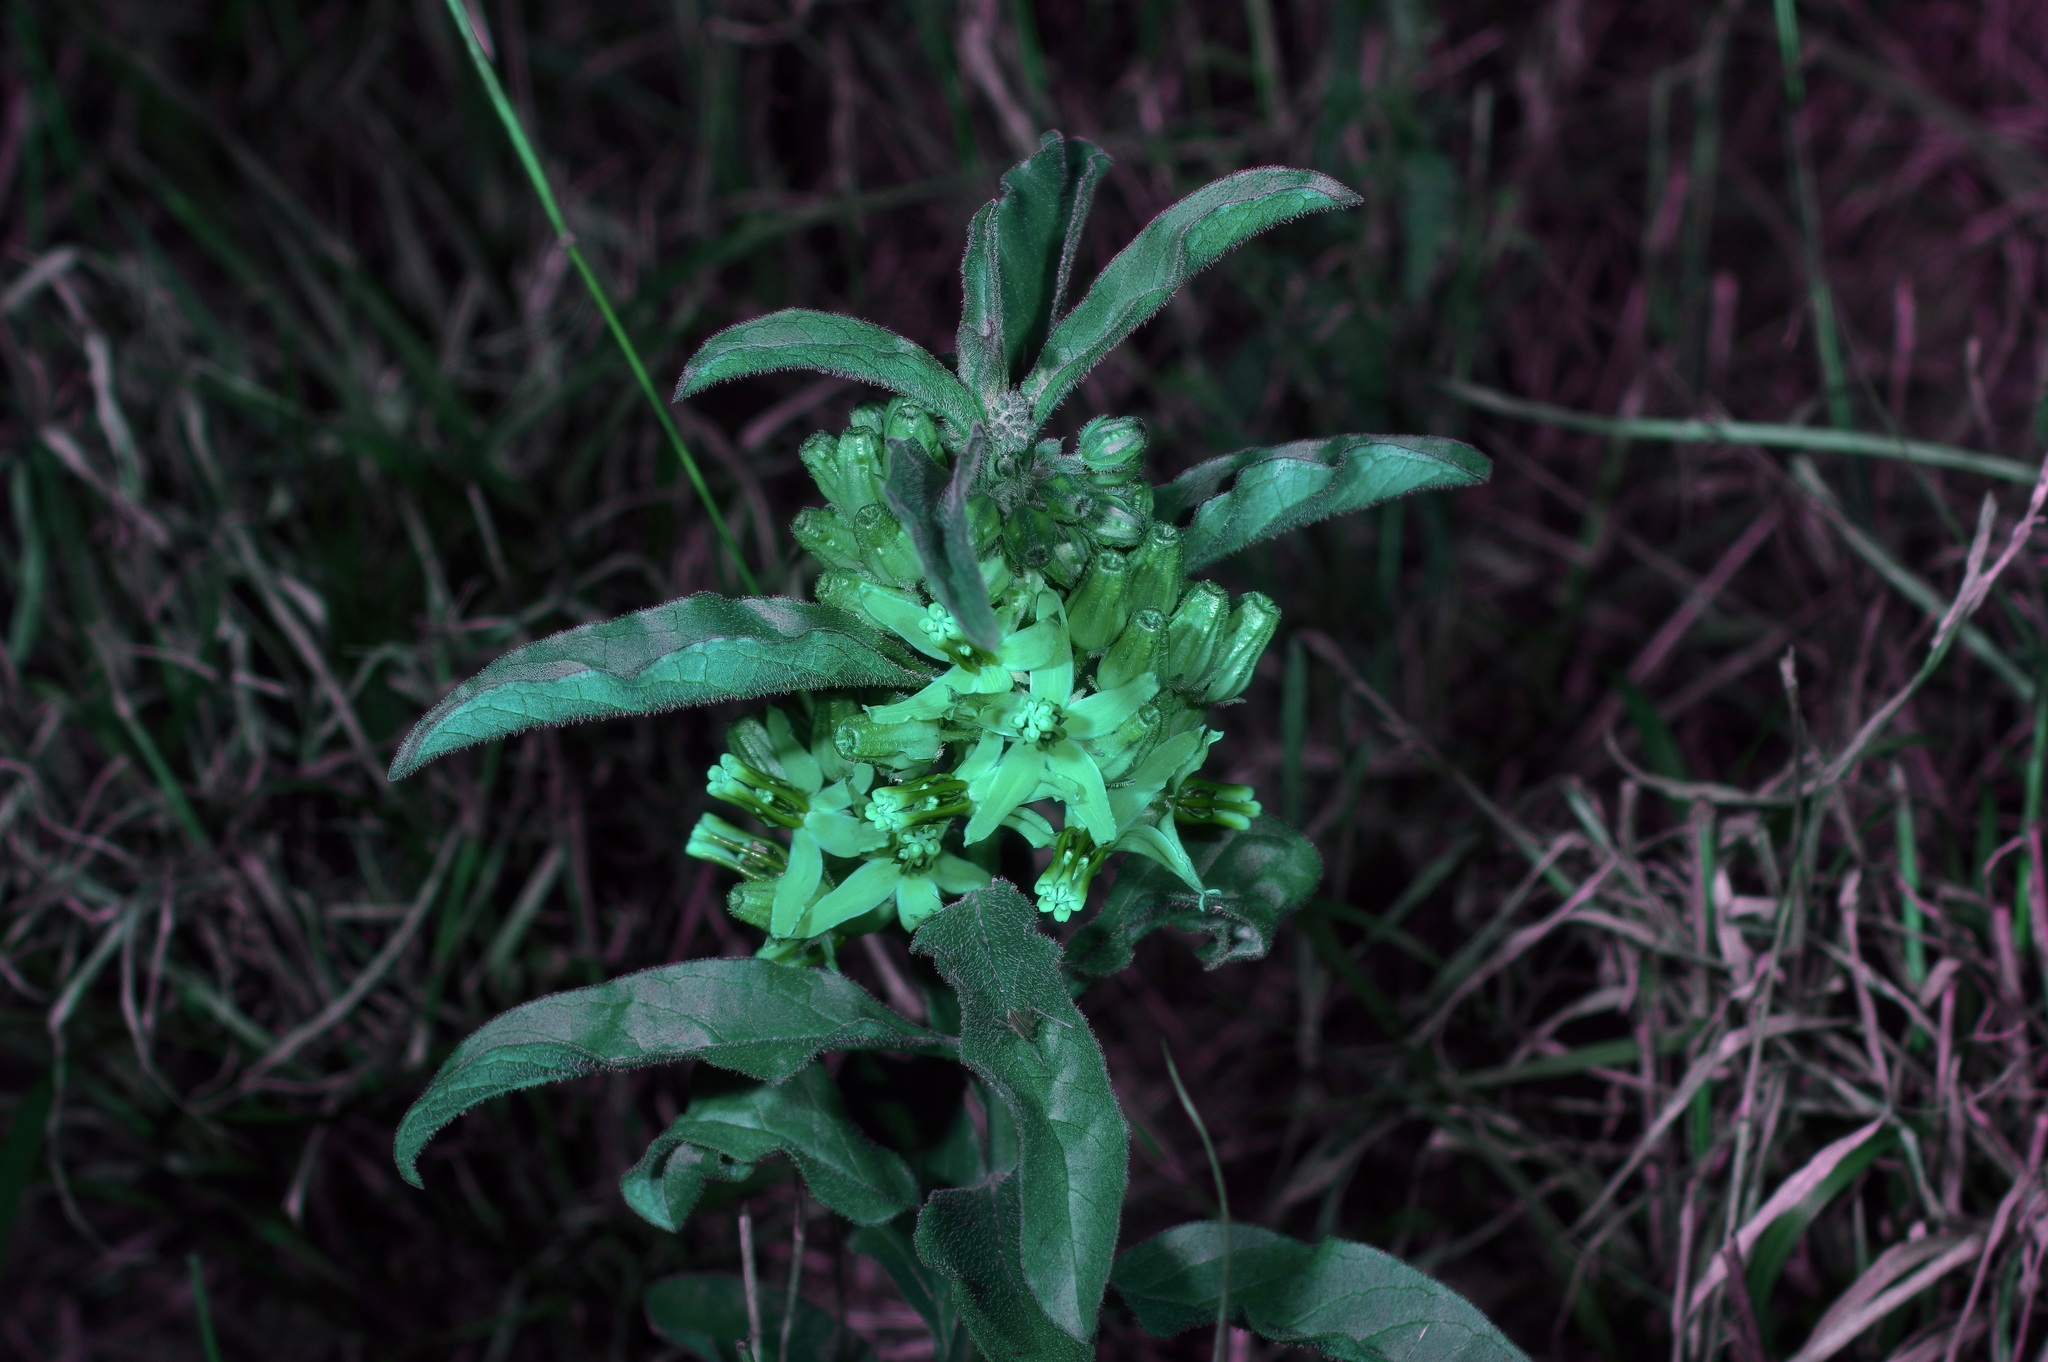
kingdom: Plantae
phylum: Tracheophyta
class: Magnoliopsida
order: Gentianales
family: Apocynaceae
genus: Asclepias
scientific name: Asclepias oenotheroides
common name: Zizotes milkweed
